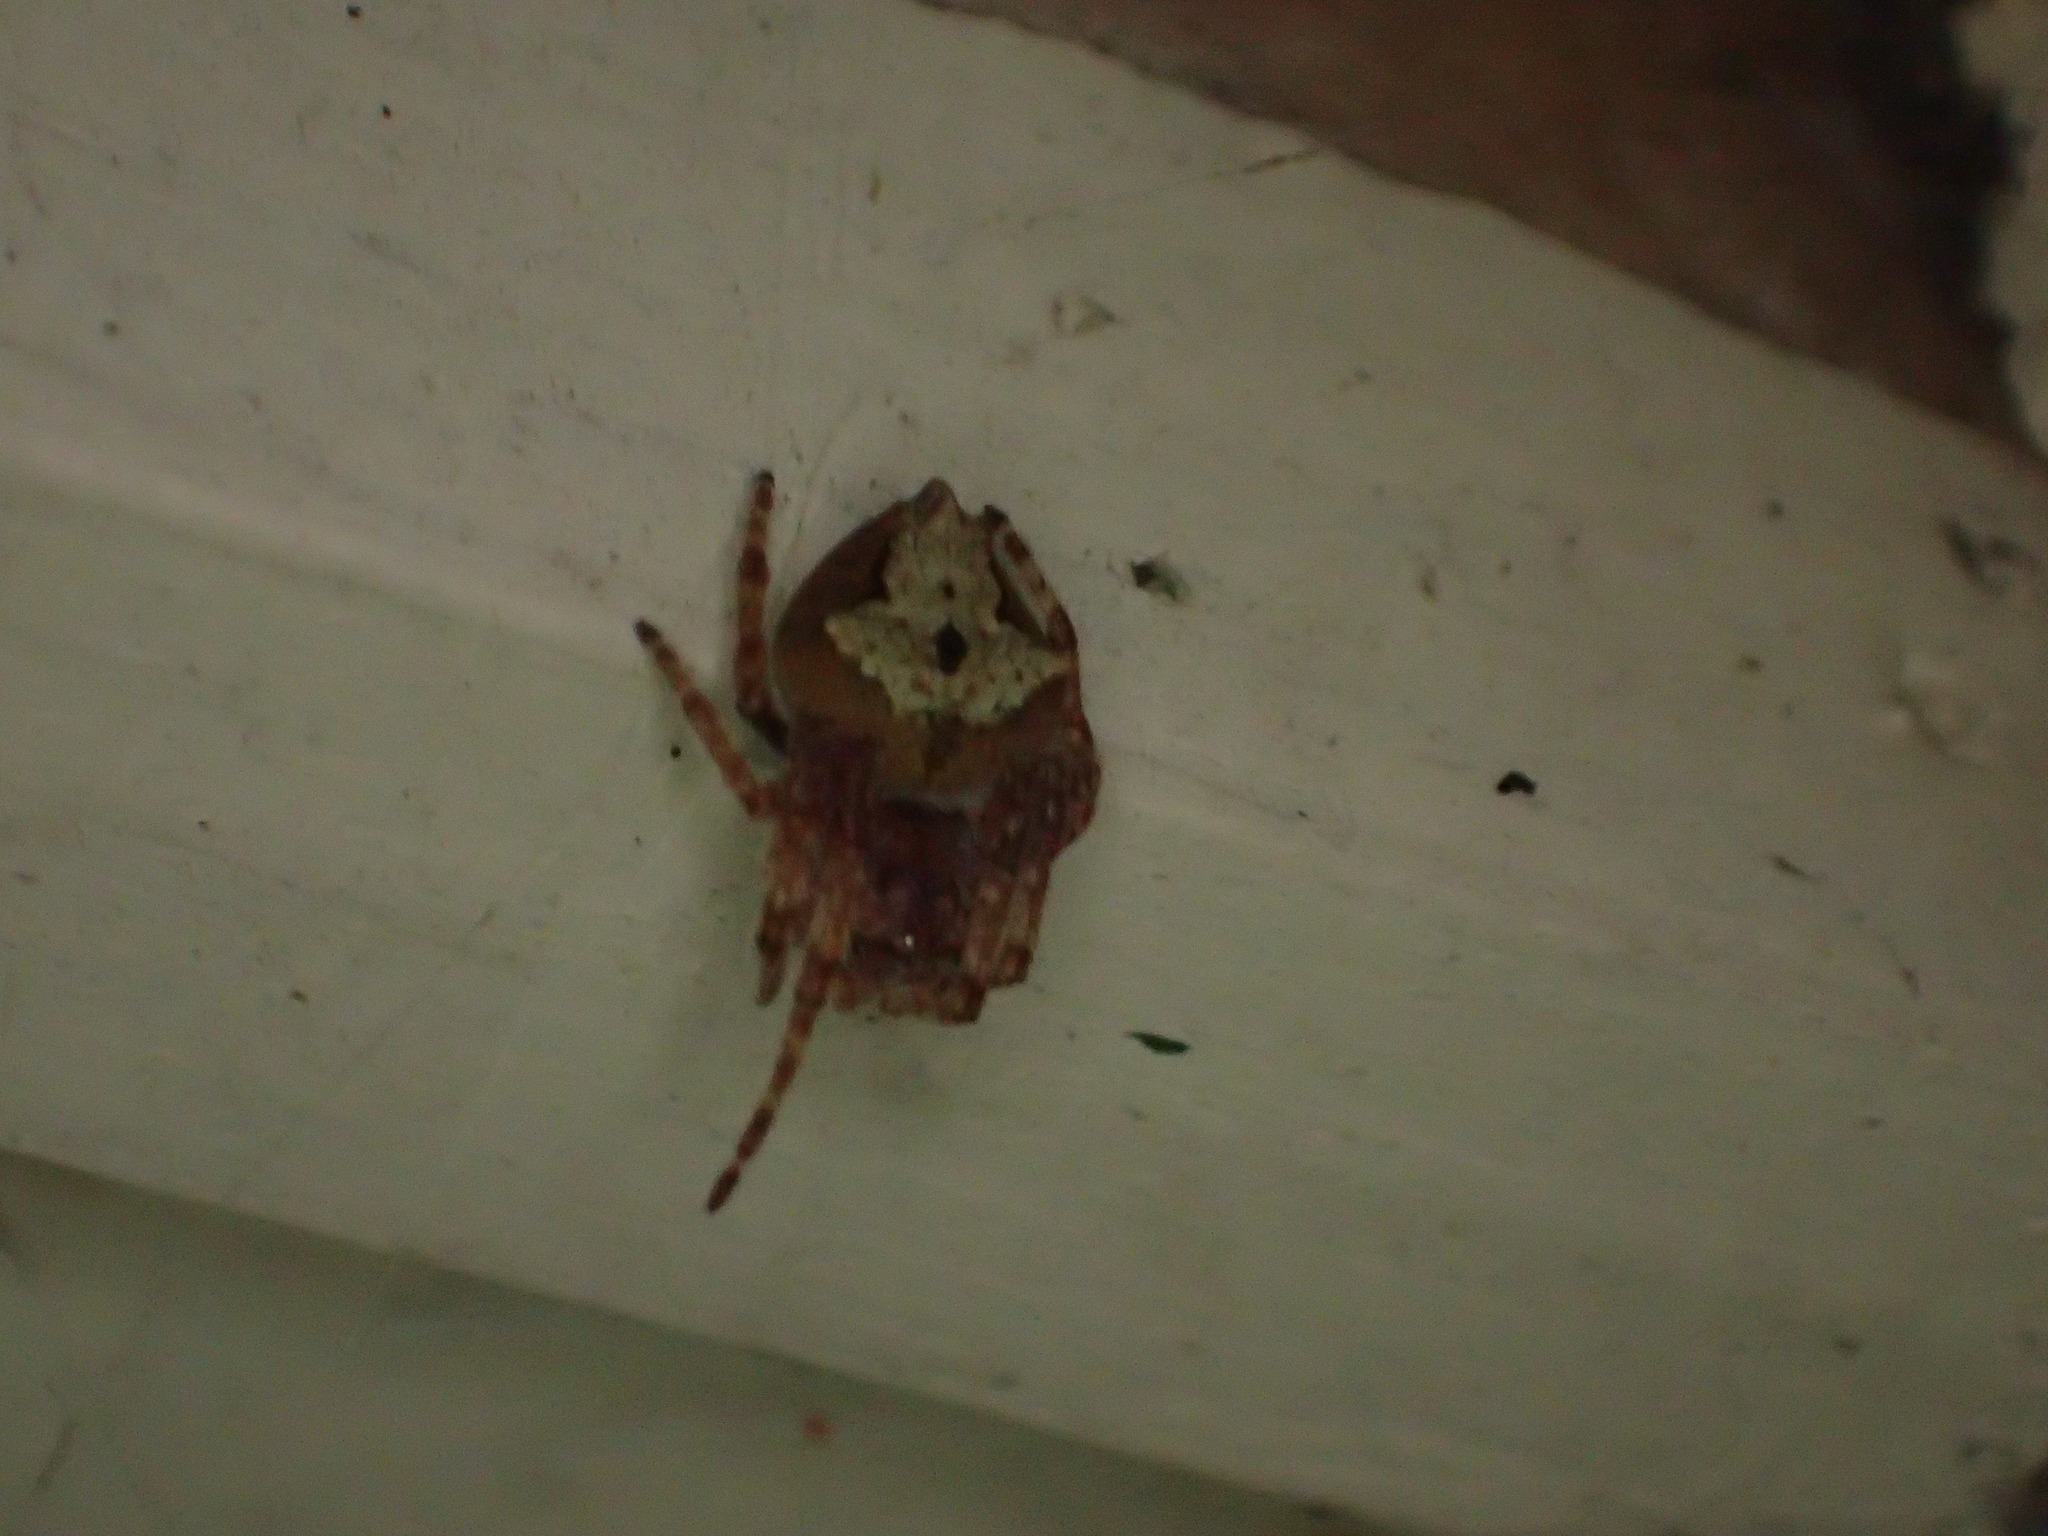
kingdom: Animalia
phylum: Arthropoda
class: Arachnida
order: Araneae
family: Araneidae
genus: Eriophora
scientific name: Eriophora pustulosa
